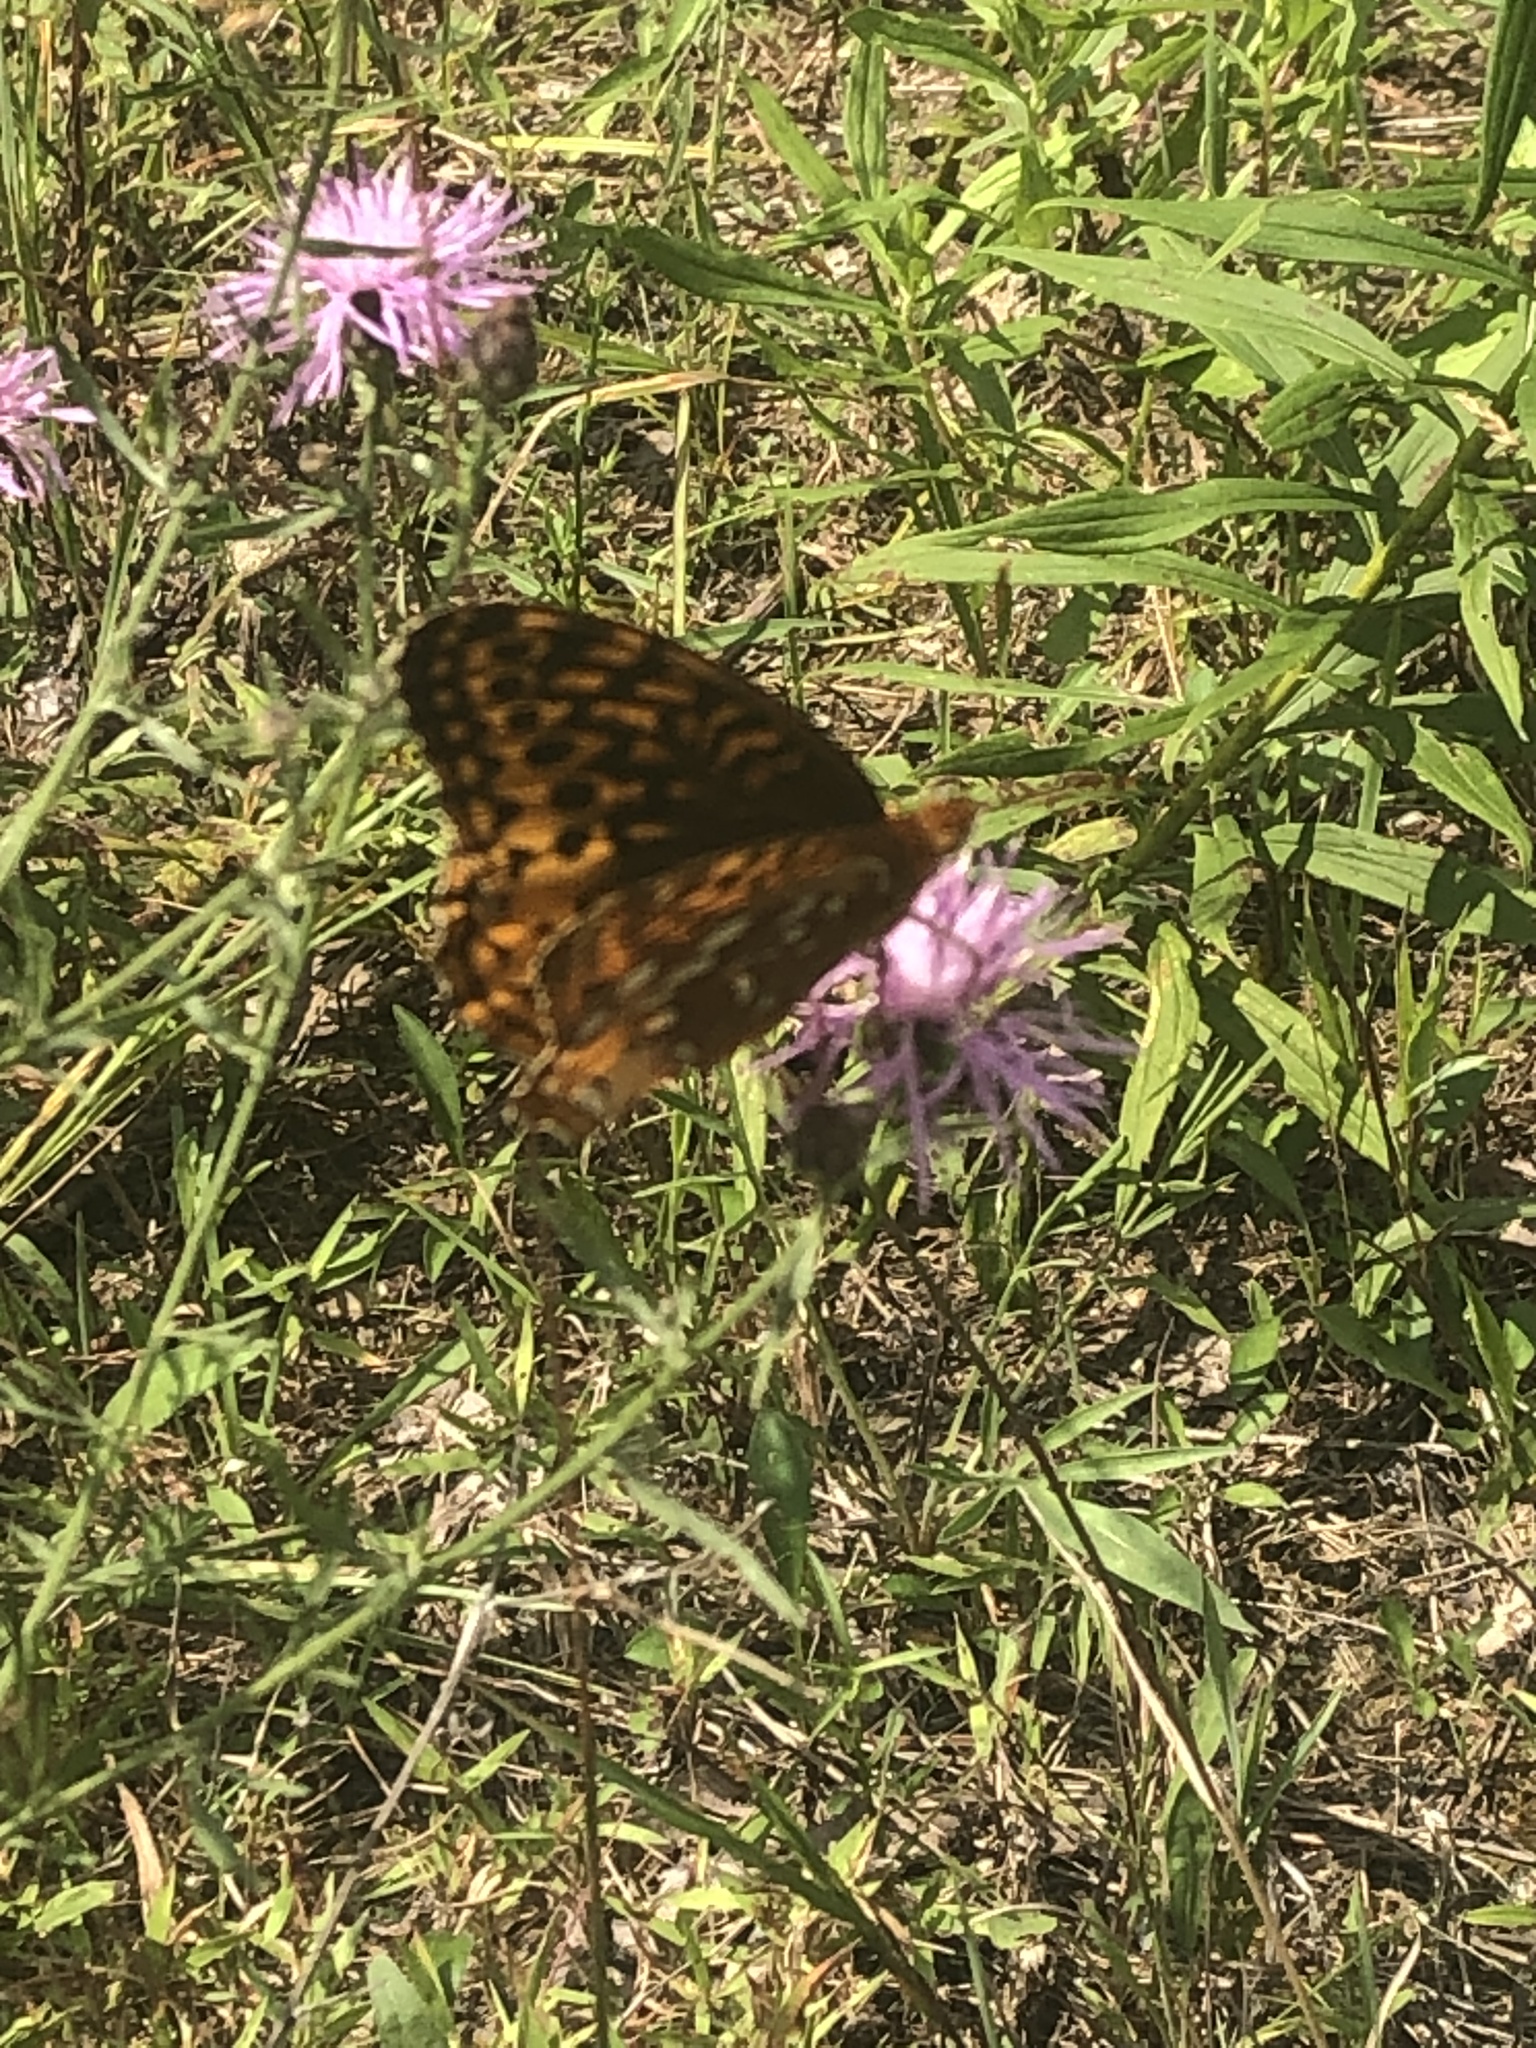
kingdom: Animalia
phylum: Arthropoda
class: Insecta
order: Lepidoptera
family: Nymphalidae
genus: Speyeria
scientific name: Speyeria cybele
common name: Great spangled fritillary
